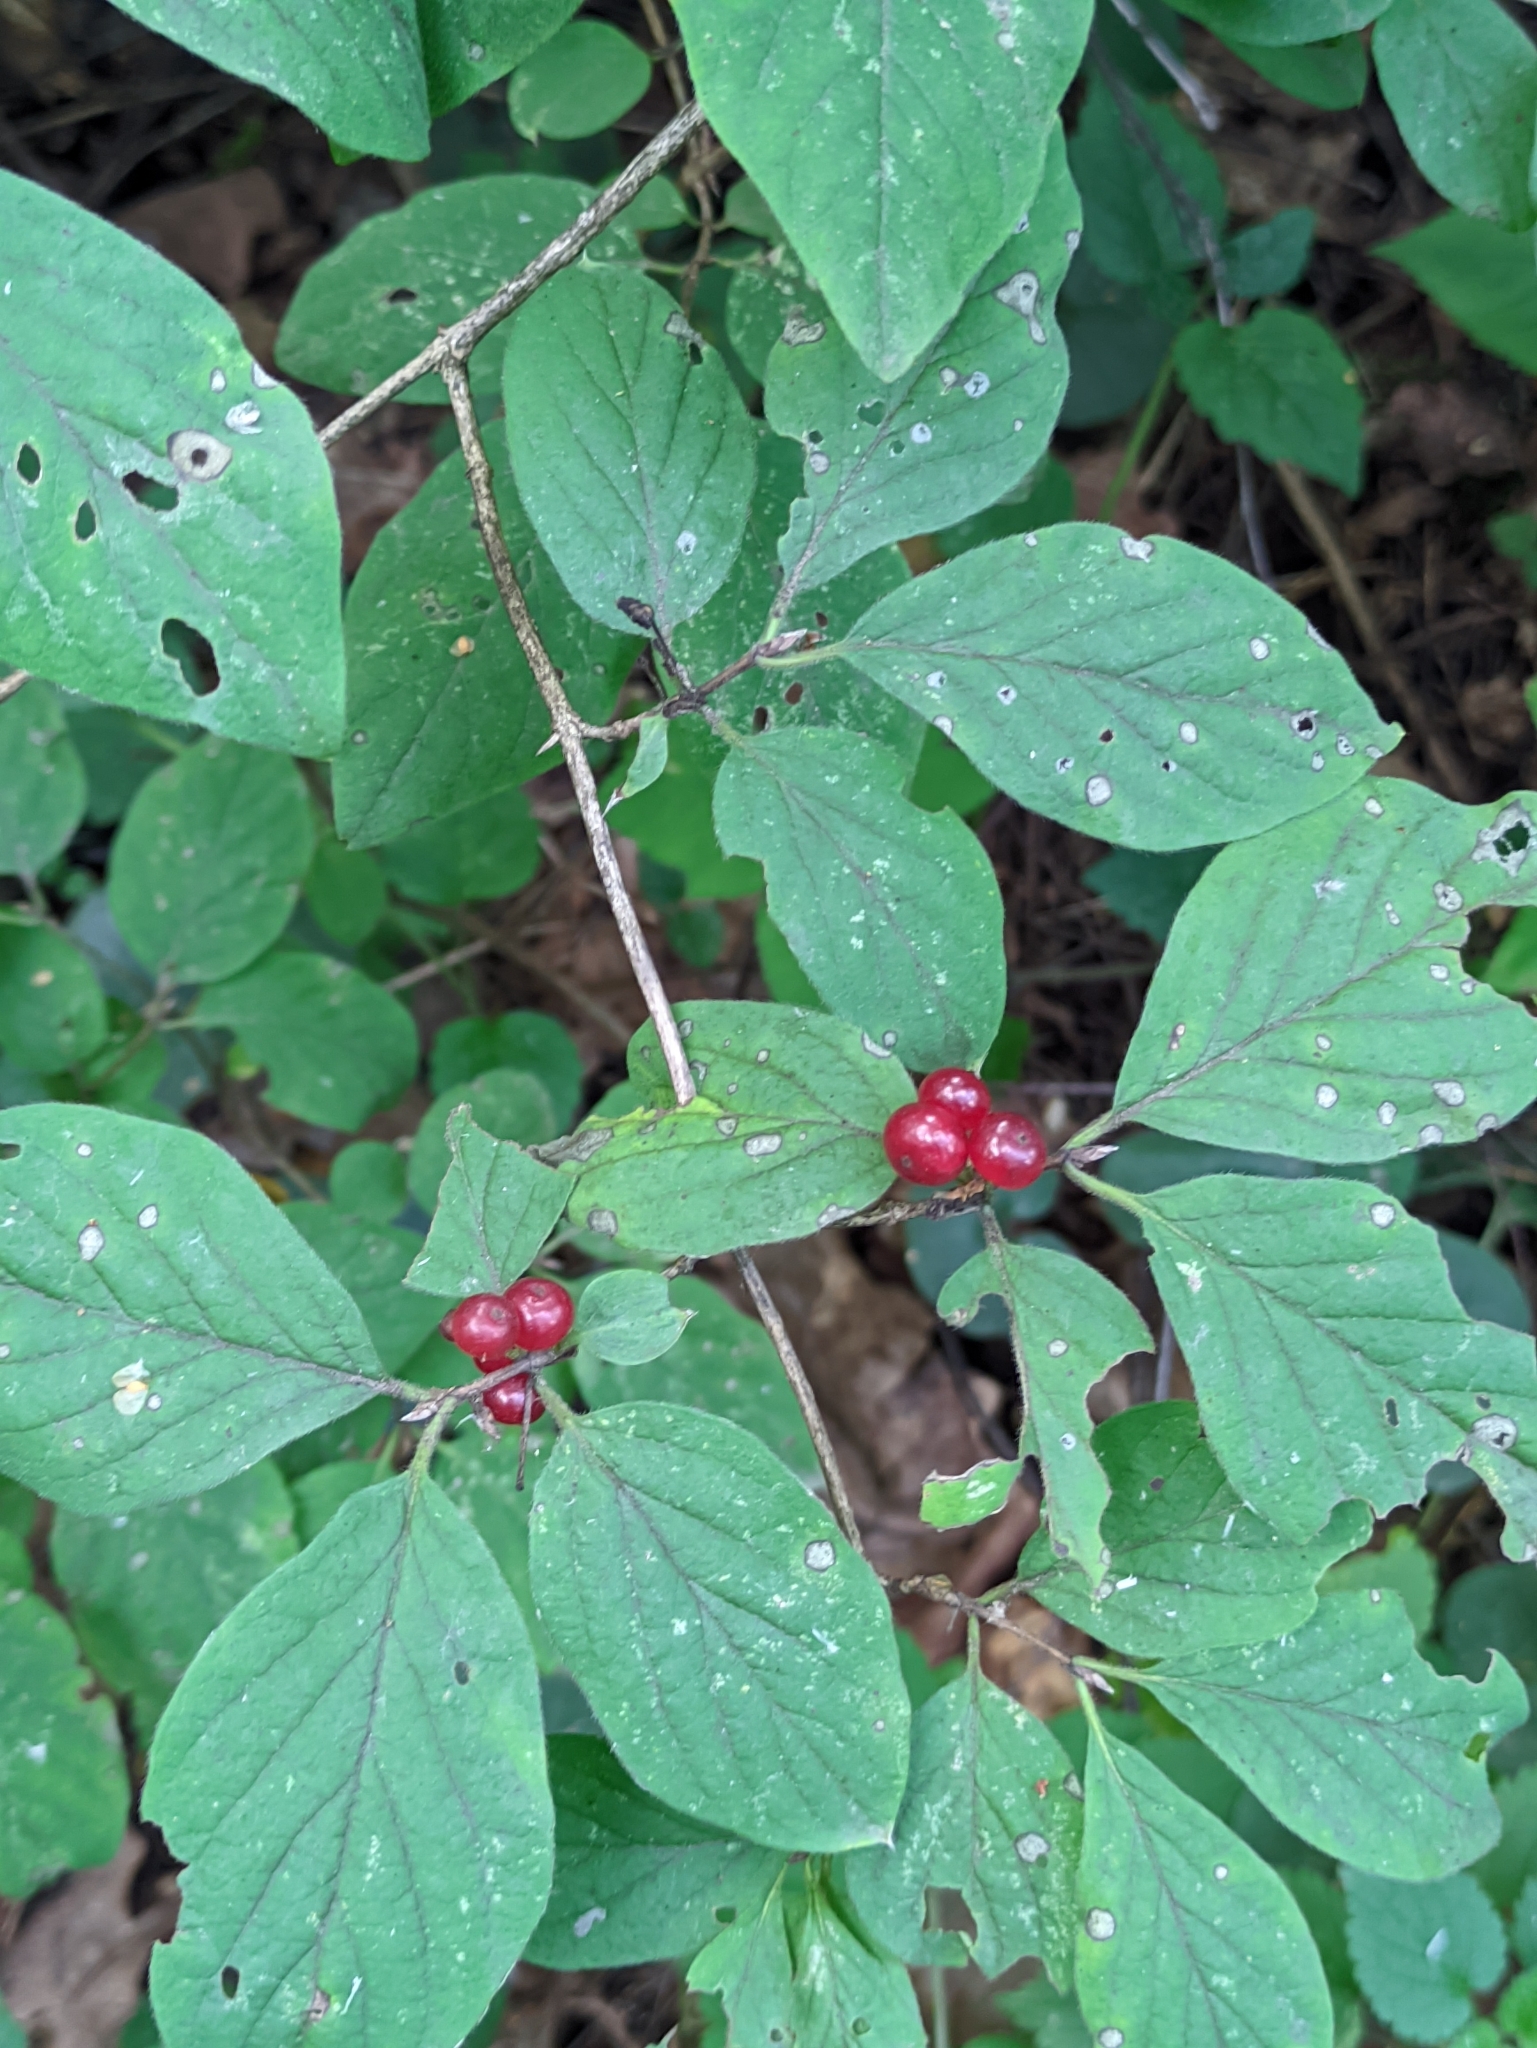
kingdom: Plantae
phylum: Tracheophyta
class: Magnoliopsida
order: Dipsacales
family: Caprifoliaceae
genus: Lonicera
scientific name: Lonicera xylosteum
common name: Fly honeysuckle
